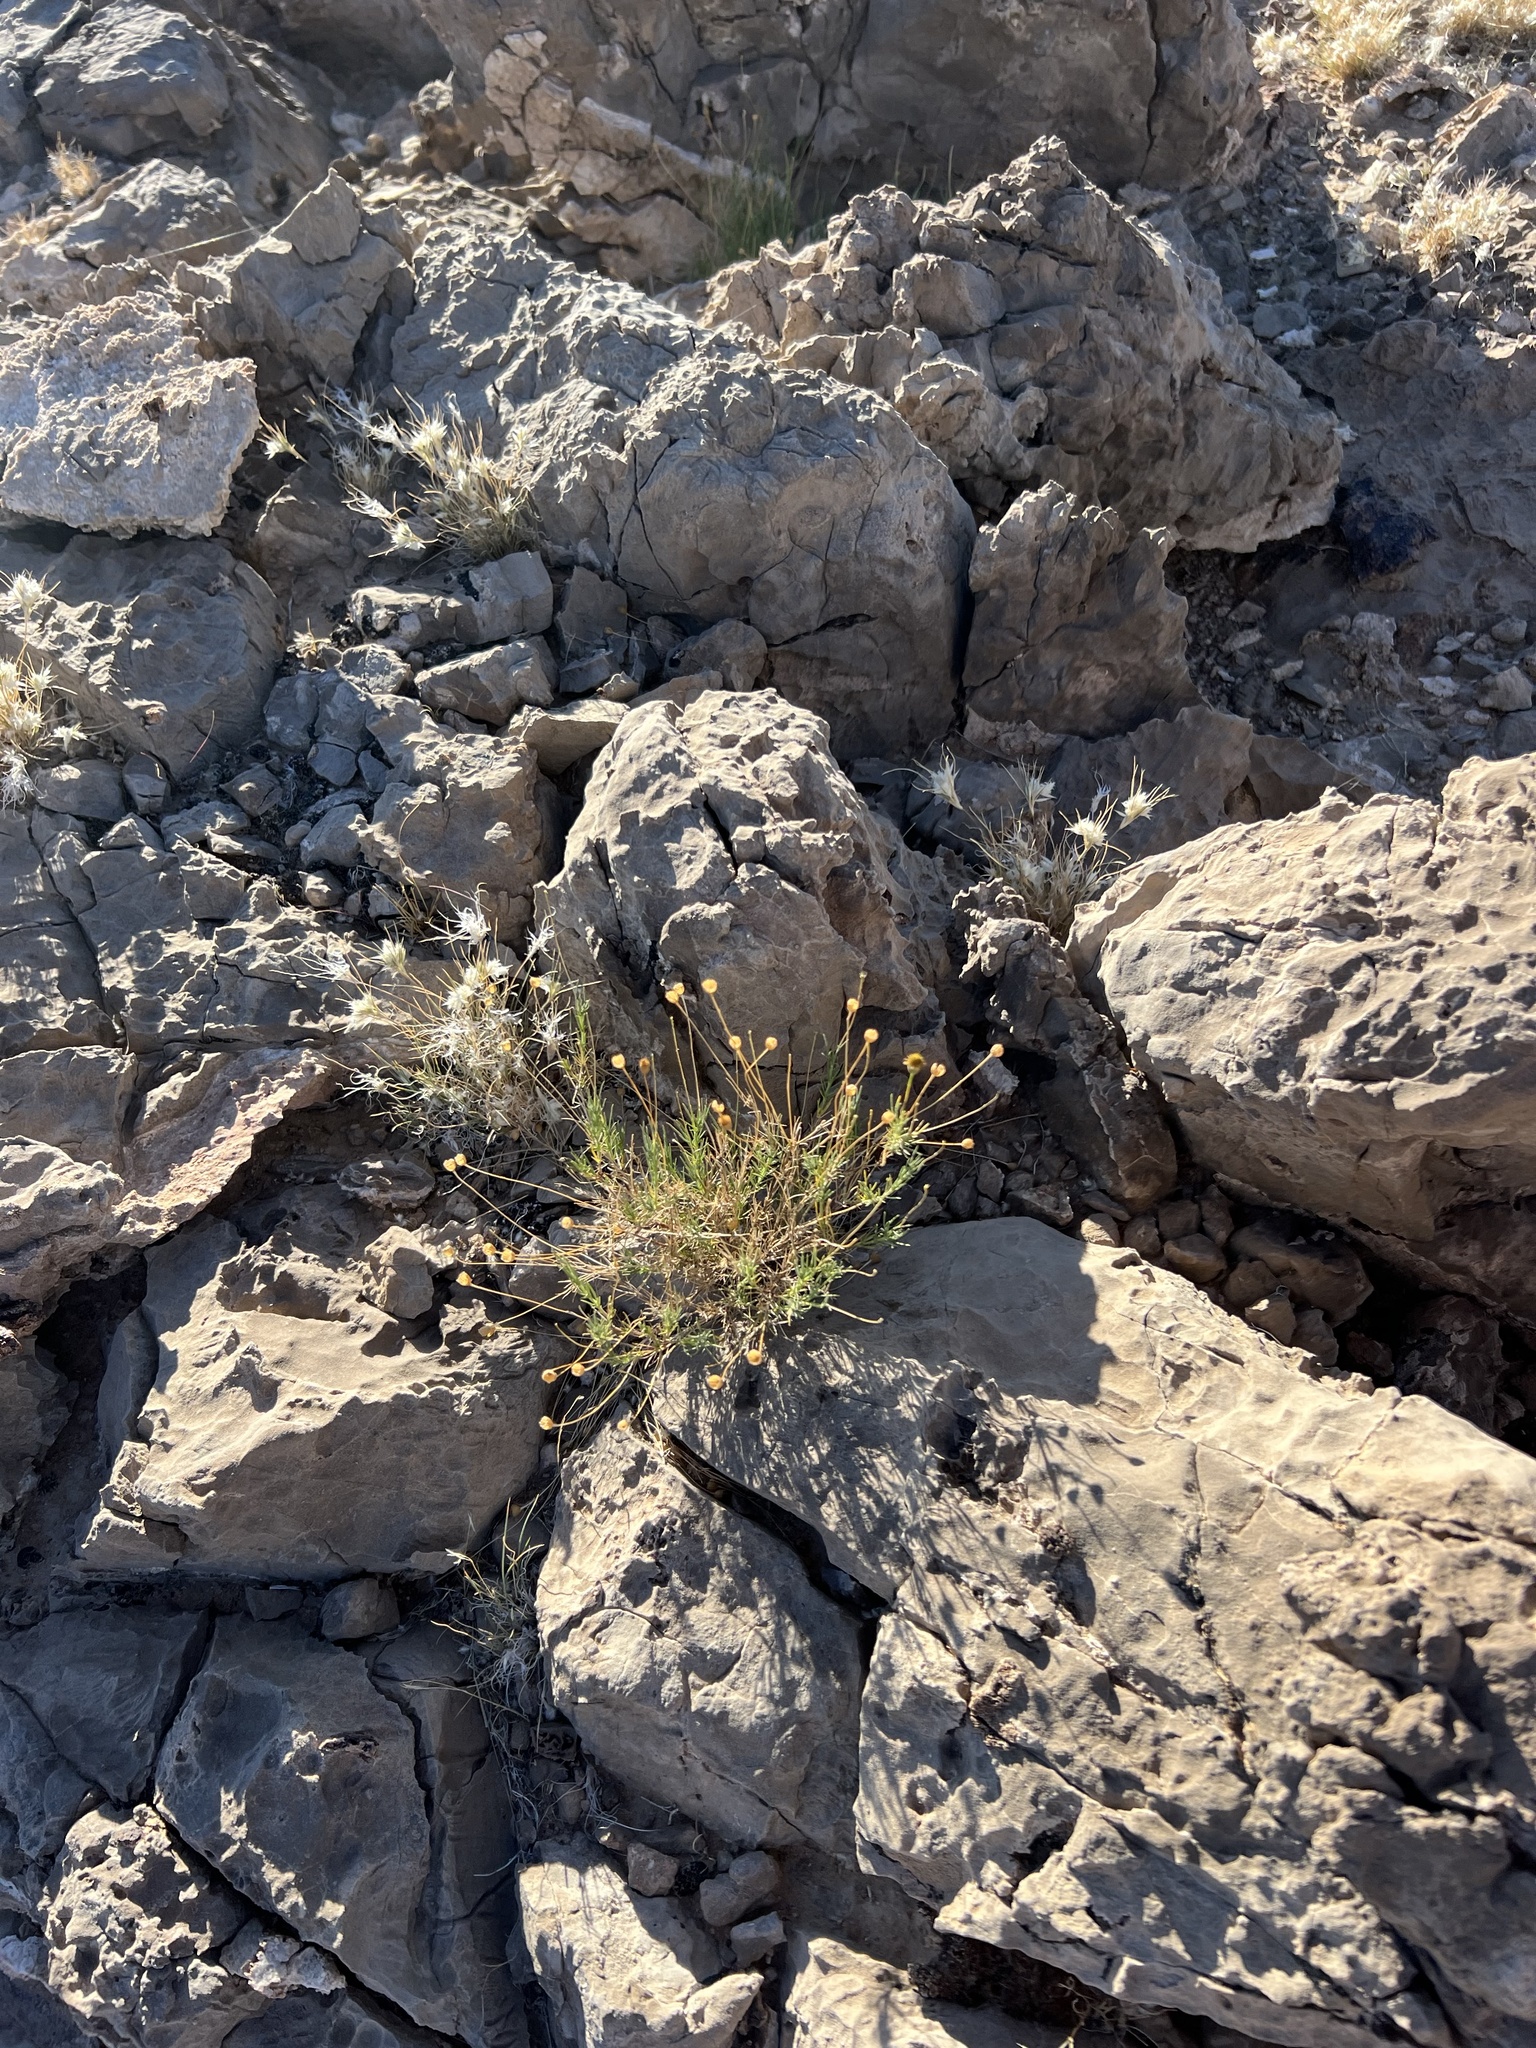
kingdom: Plantae
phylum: Tracheophyta
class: Magnoliopsida
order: Asterales
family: Asteraceae
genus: Thymophylla
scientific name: Thymophylla pentachaeta
